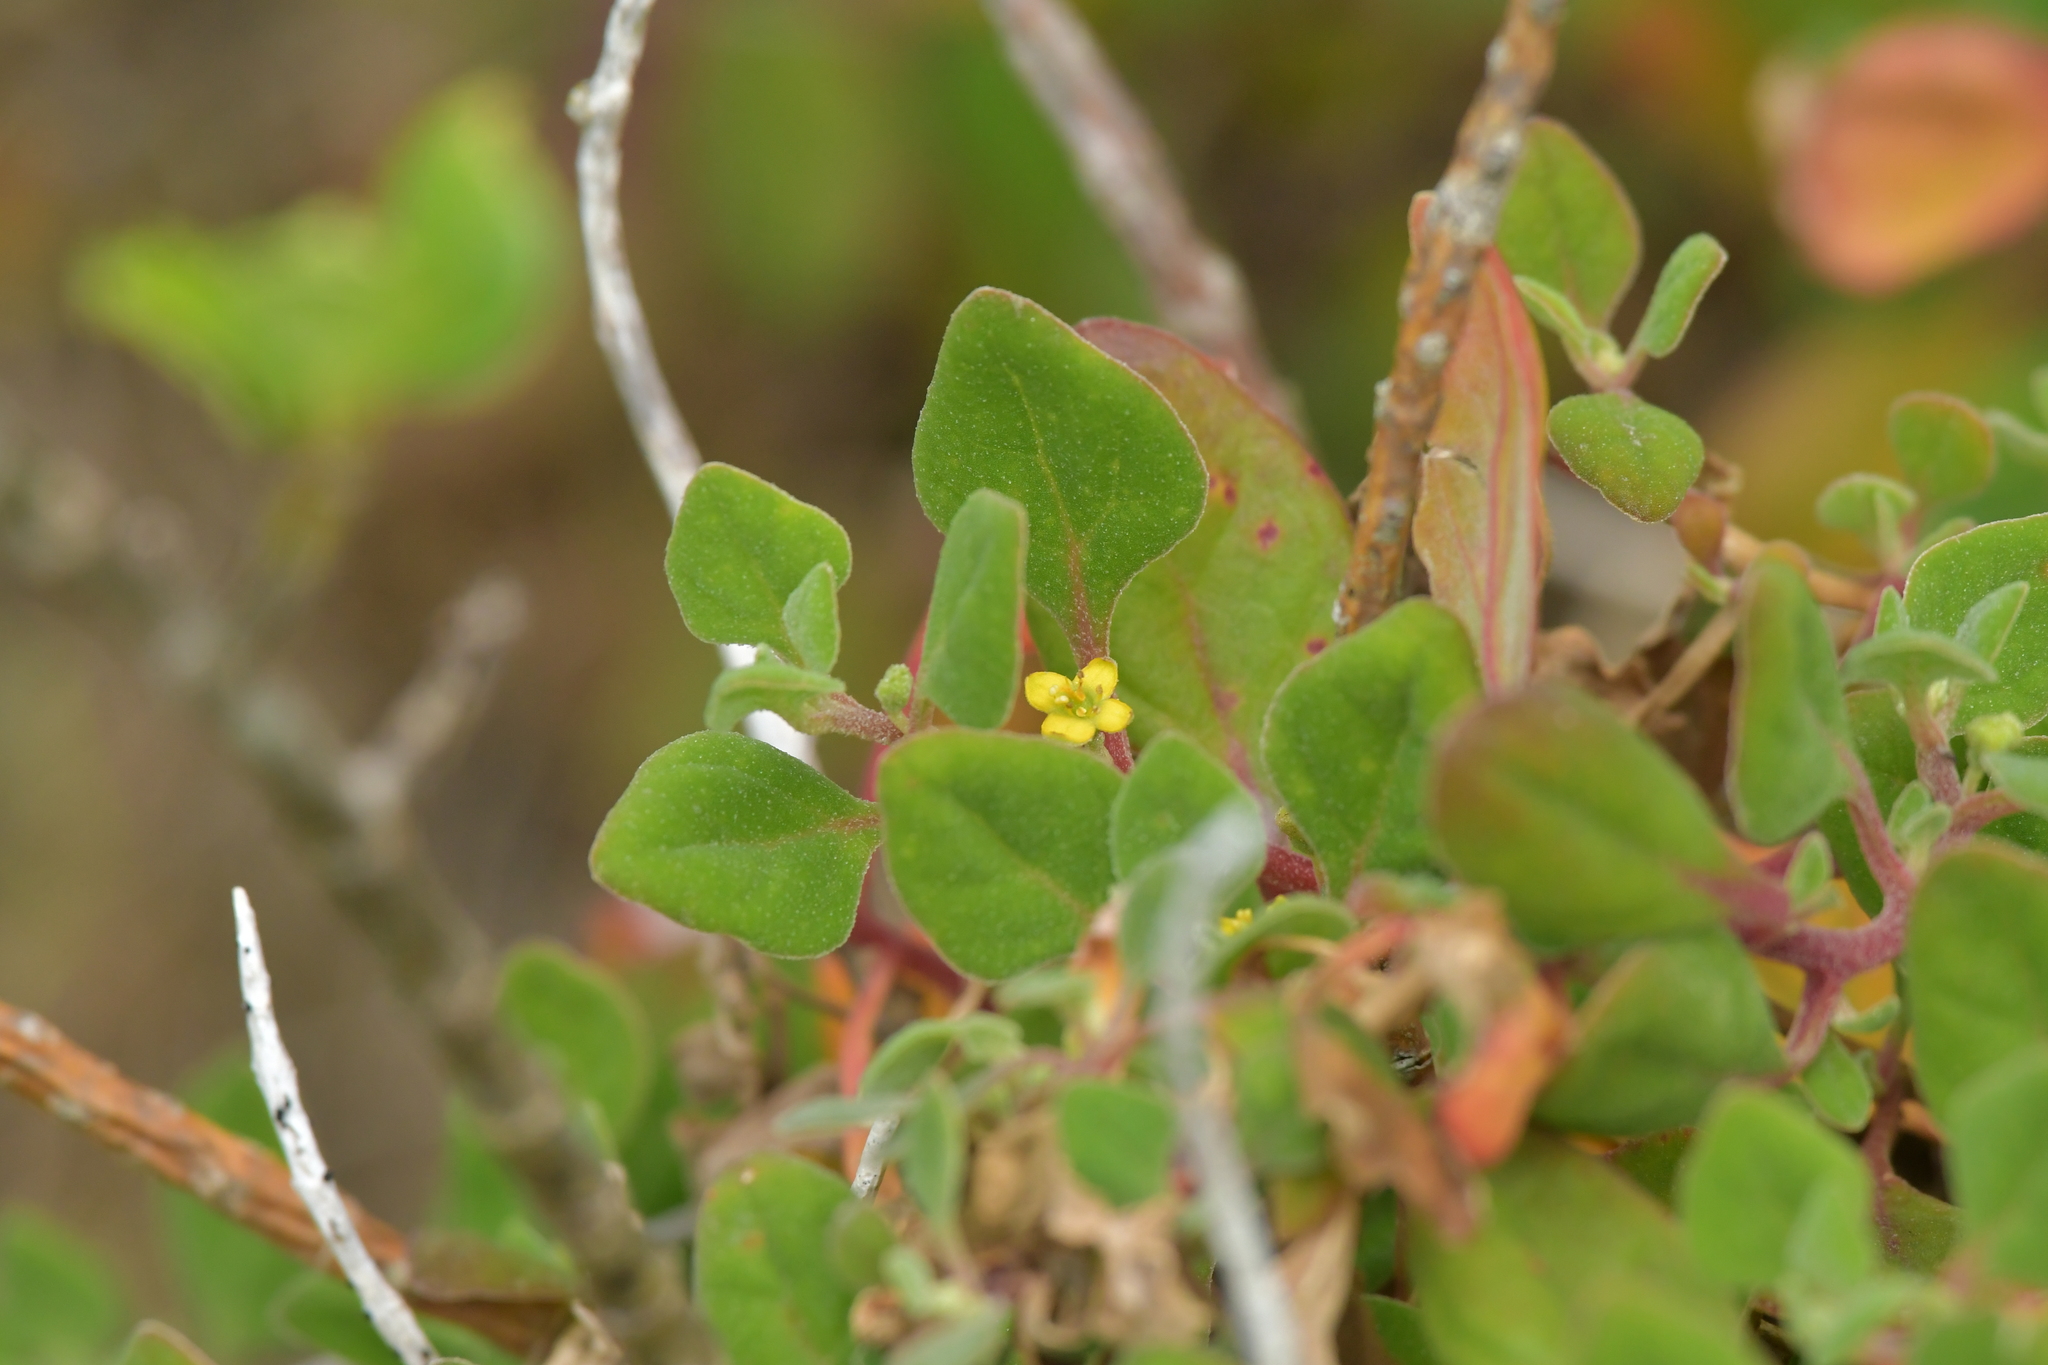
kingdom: Plantae
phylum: Tracheophyta
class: Magnoliopsida
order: Caryophyllales
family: Aizoaceae
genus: Tetragonia
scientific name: Tetragonia implexicoma
